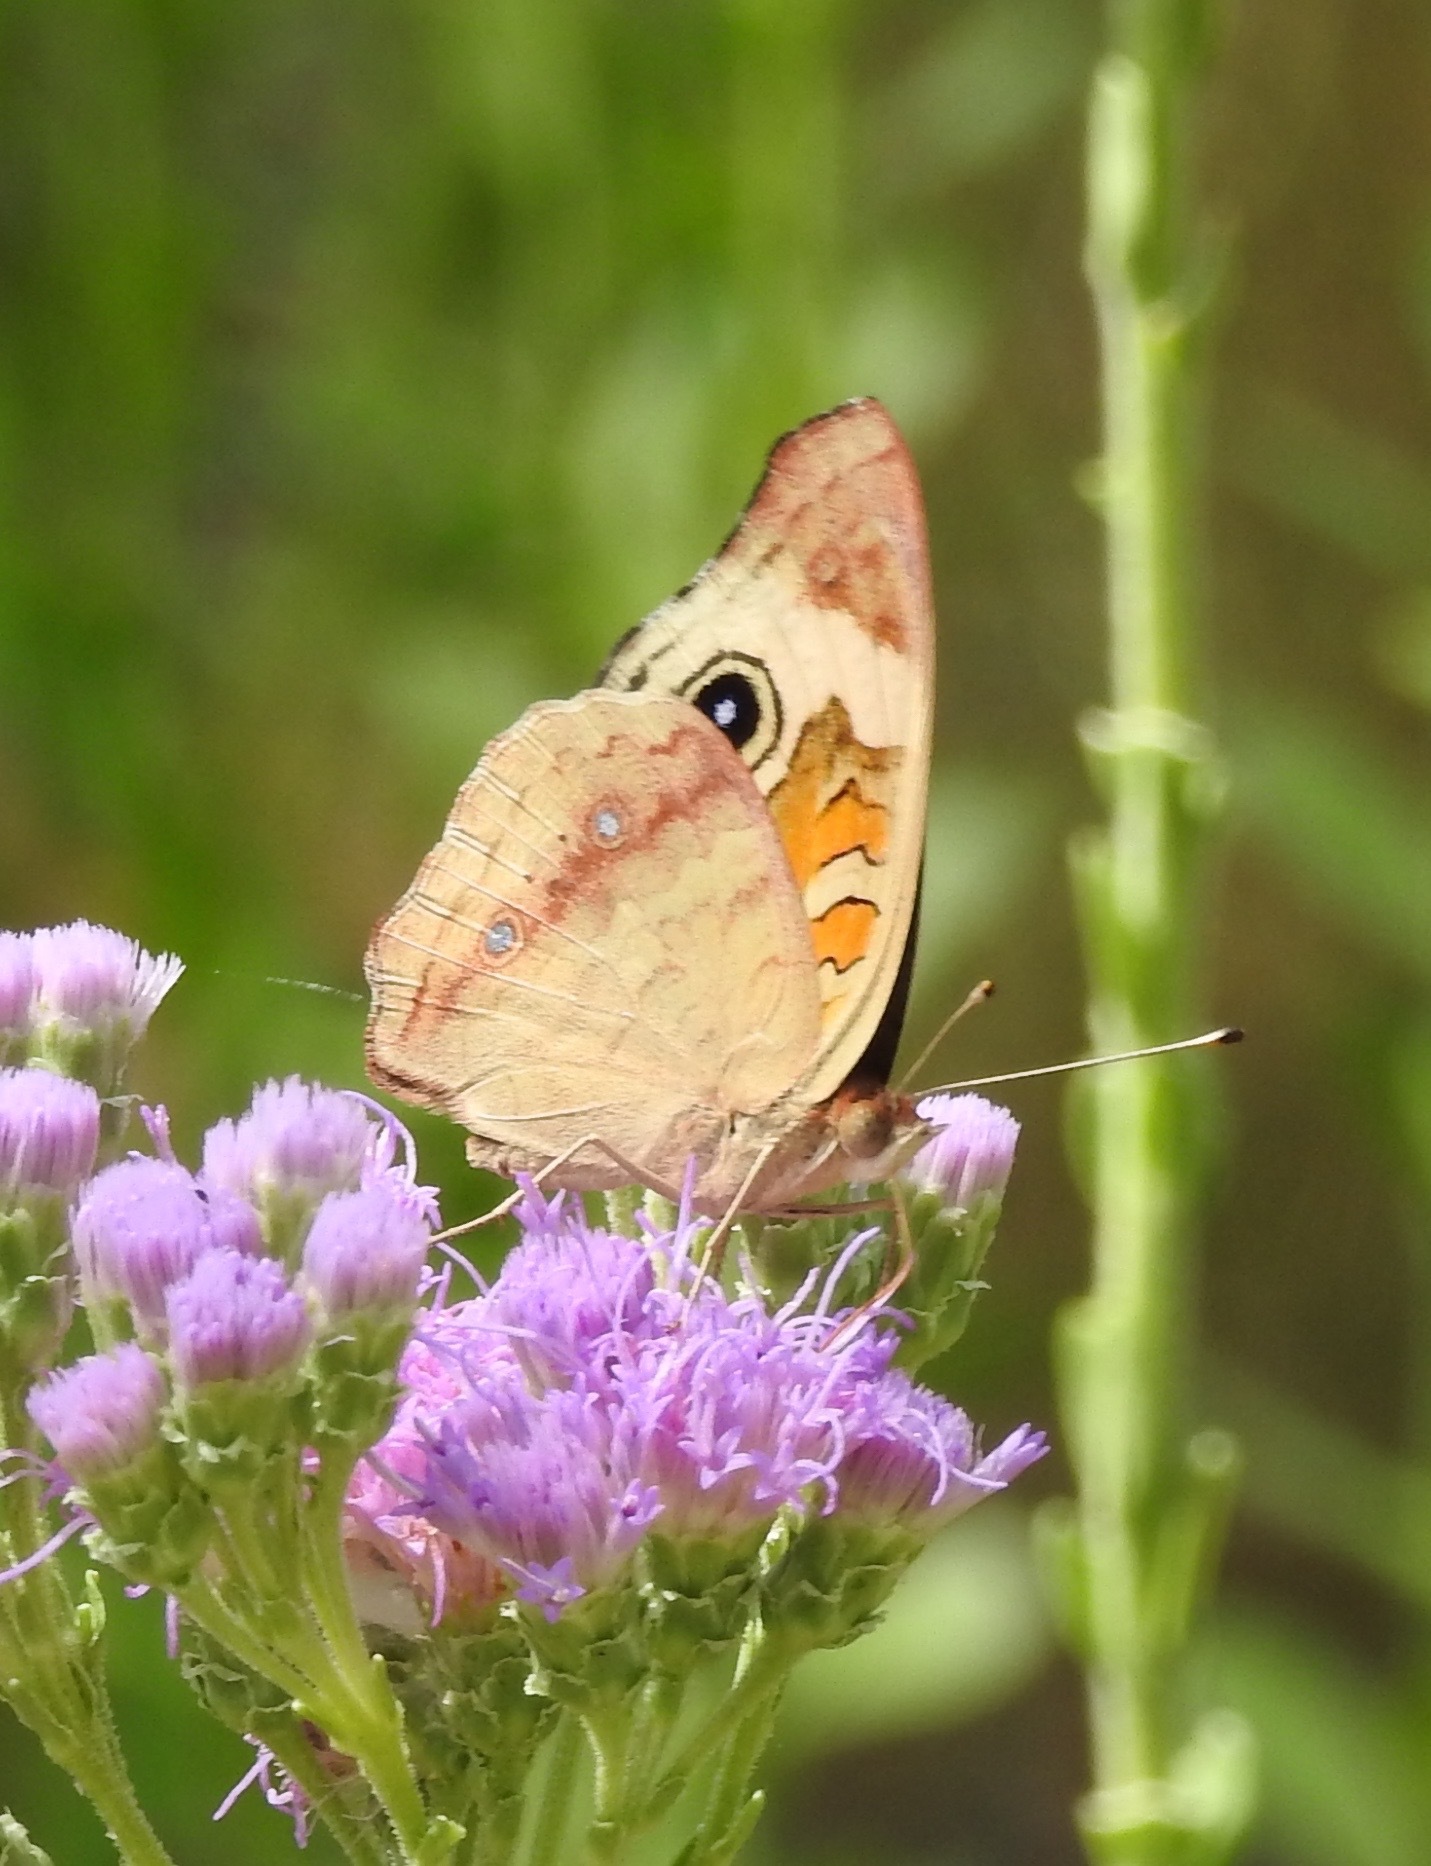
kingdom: Animalia
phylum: Arthropoda
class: Insecta
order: Lepidoptera
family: Nymphalidae
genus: Junonia
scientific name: Junonia coenia
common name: Common buckeye
